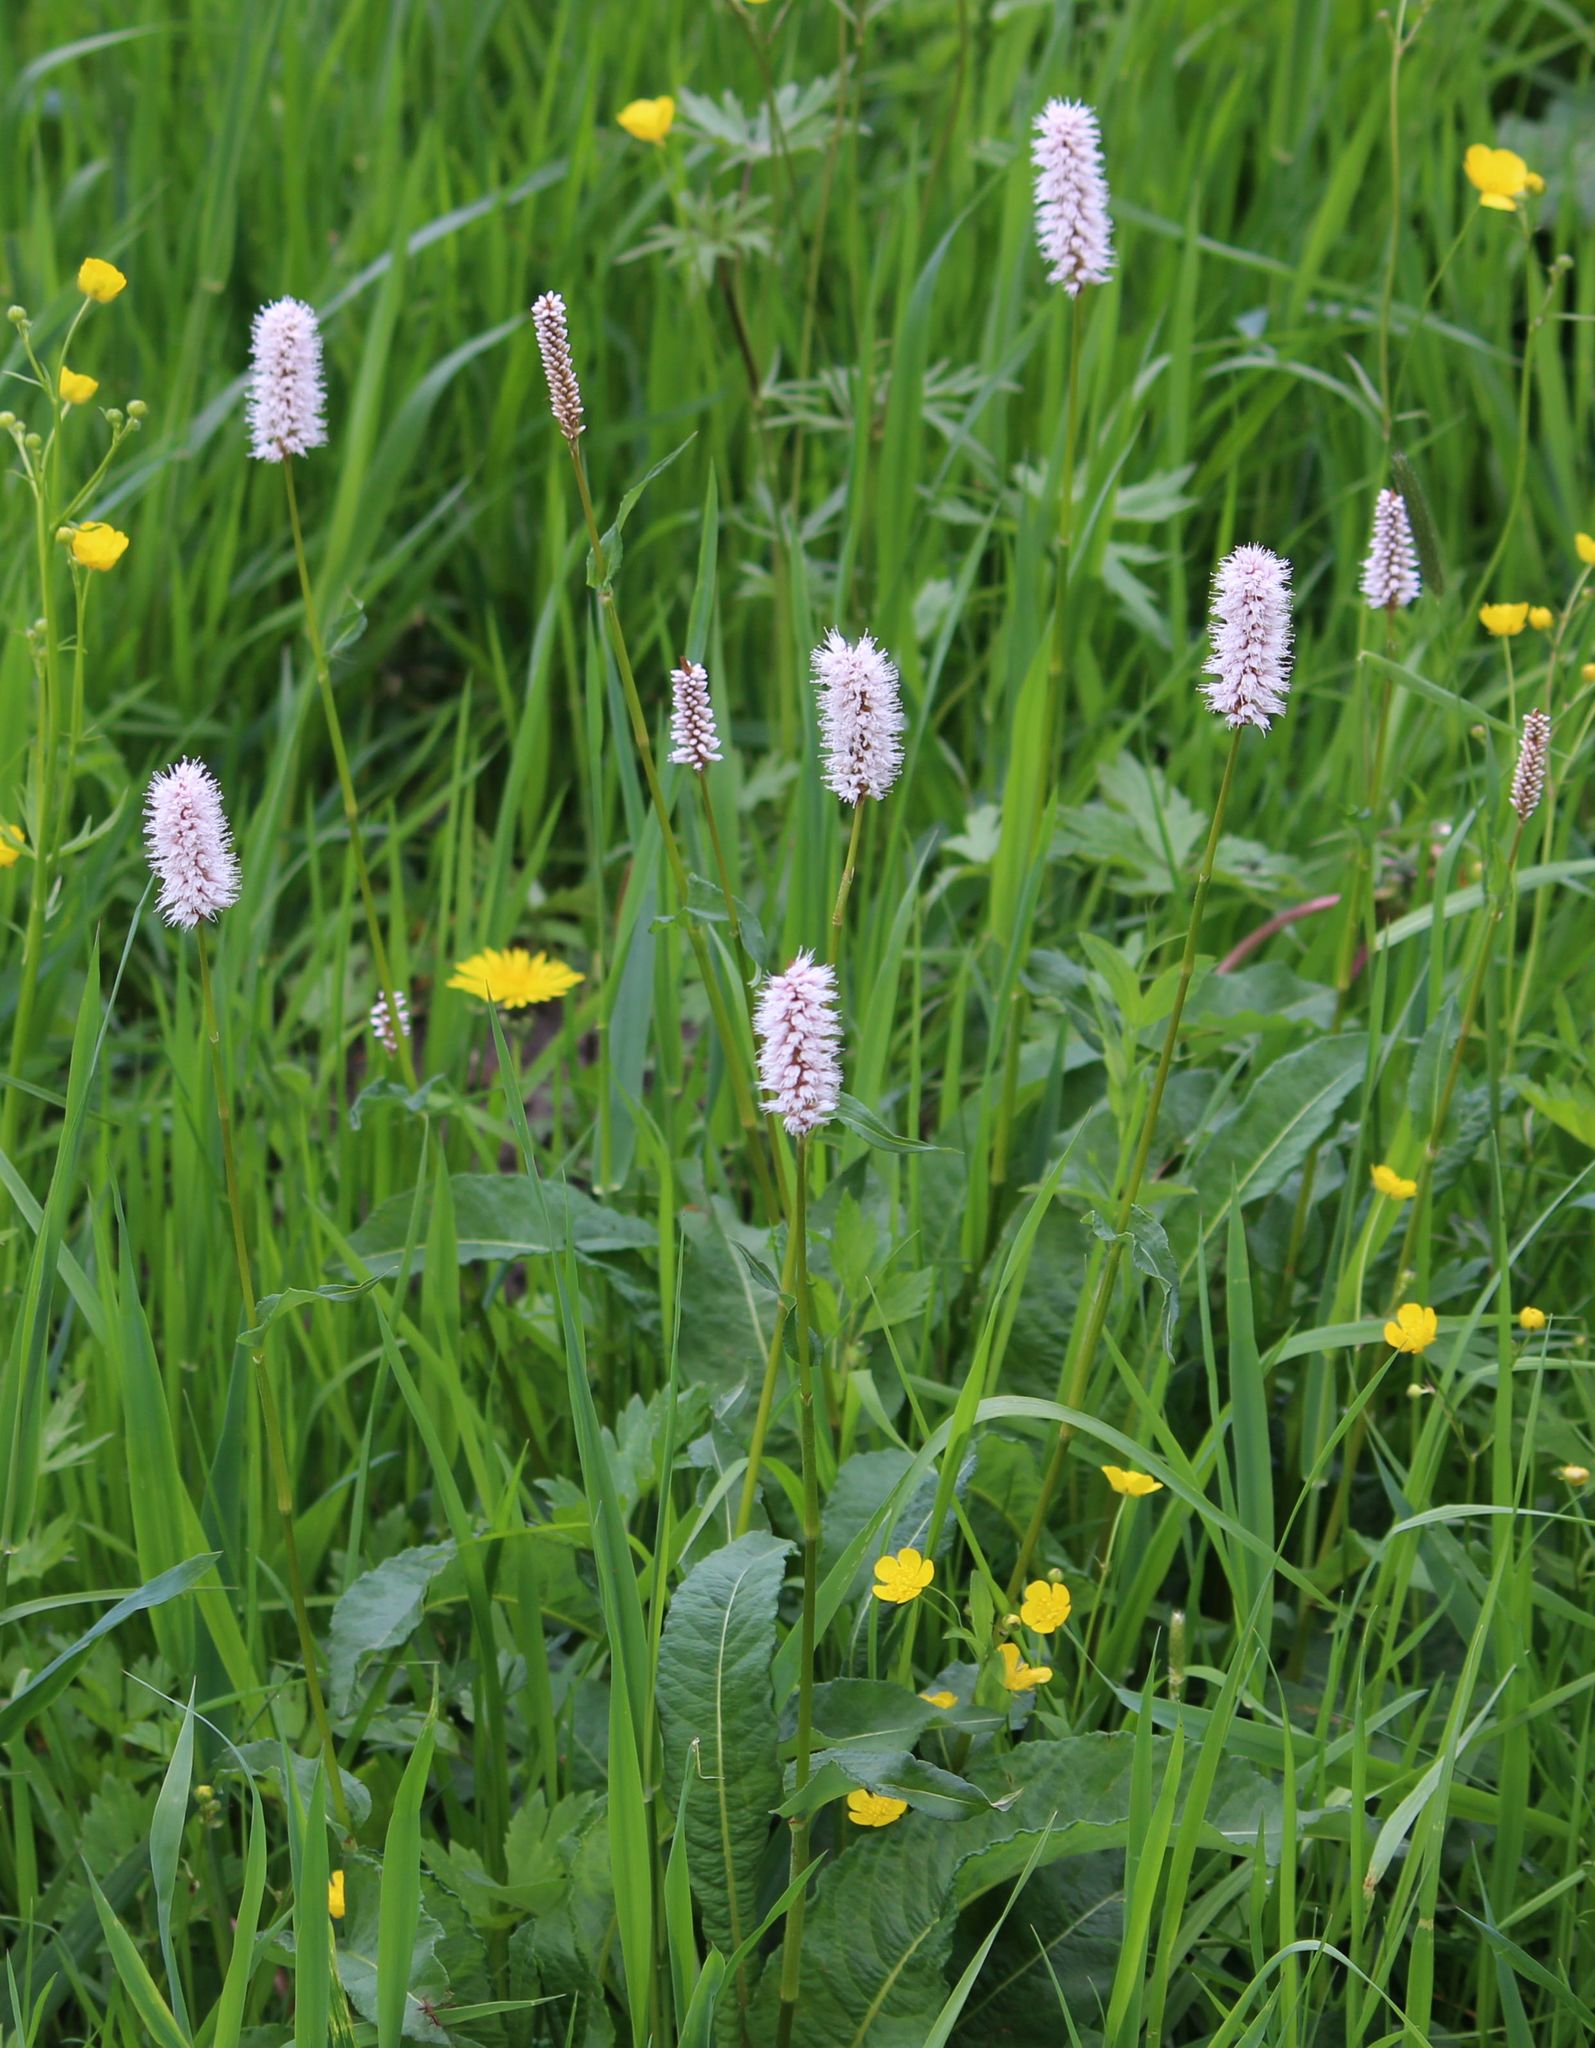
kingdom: Plantae
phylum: Tracheophyta
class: Magnoliopsida
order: Caryophyllales
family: Polygonaceae
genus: Bistorta
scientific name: Bistorta officinalis
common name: Common bistort
